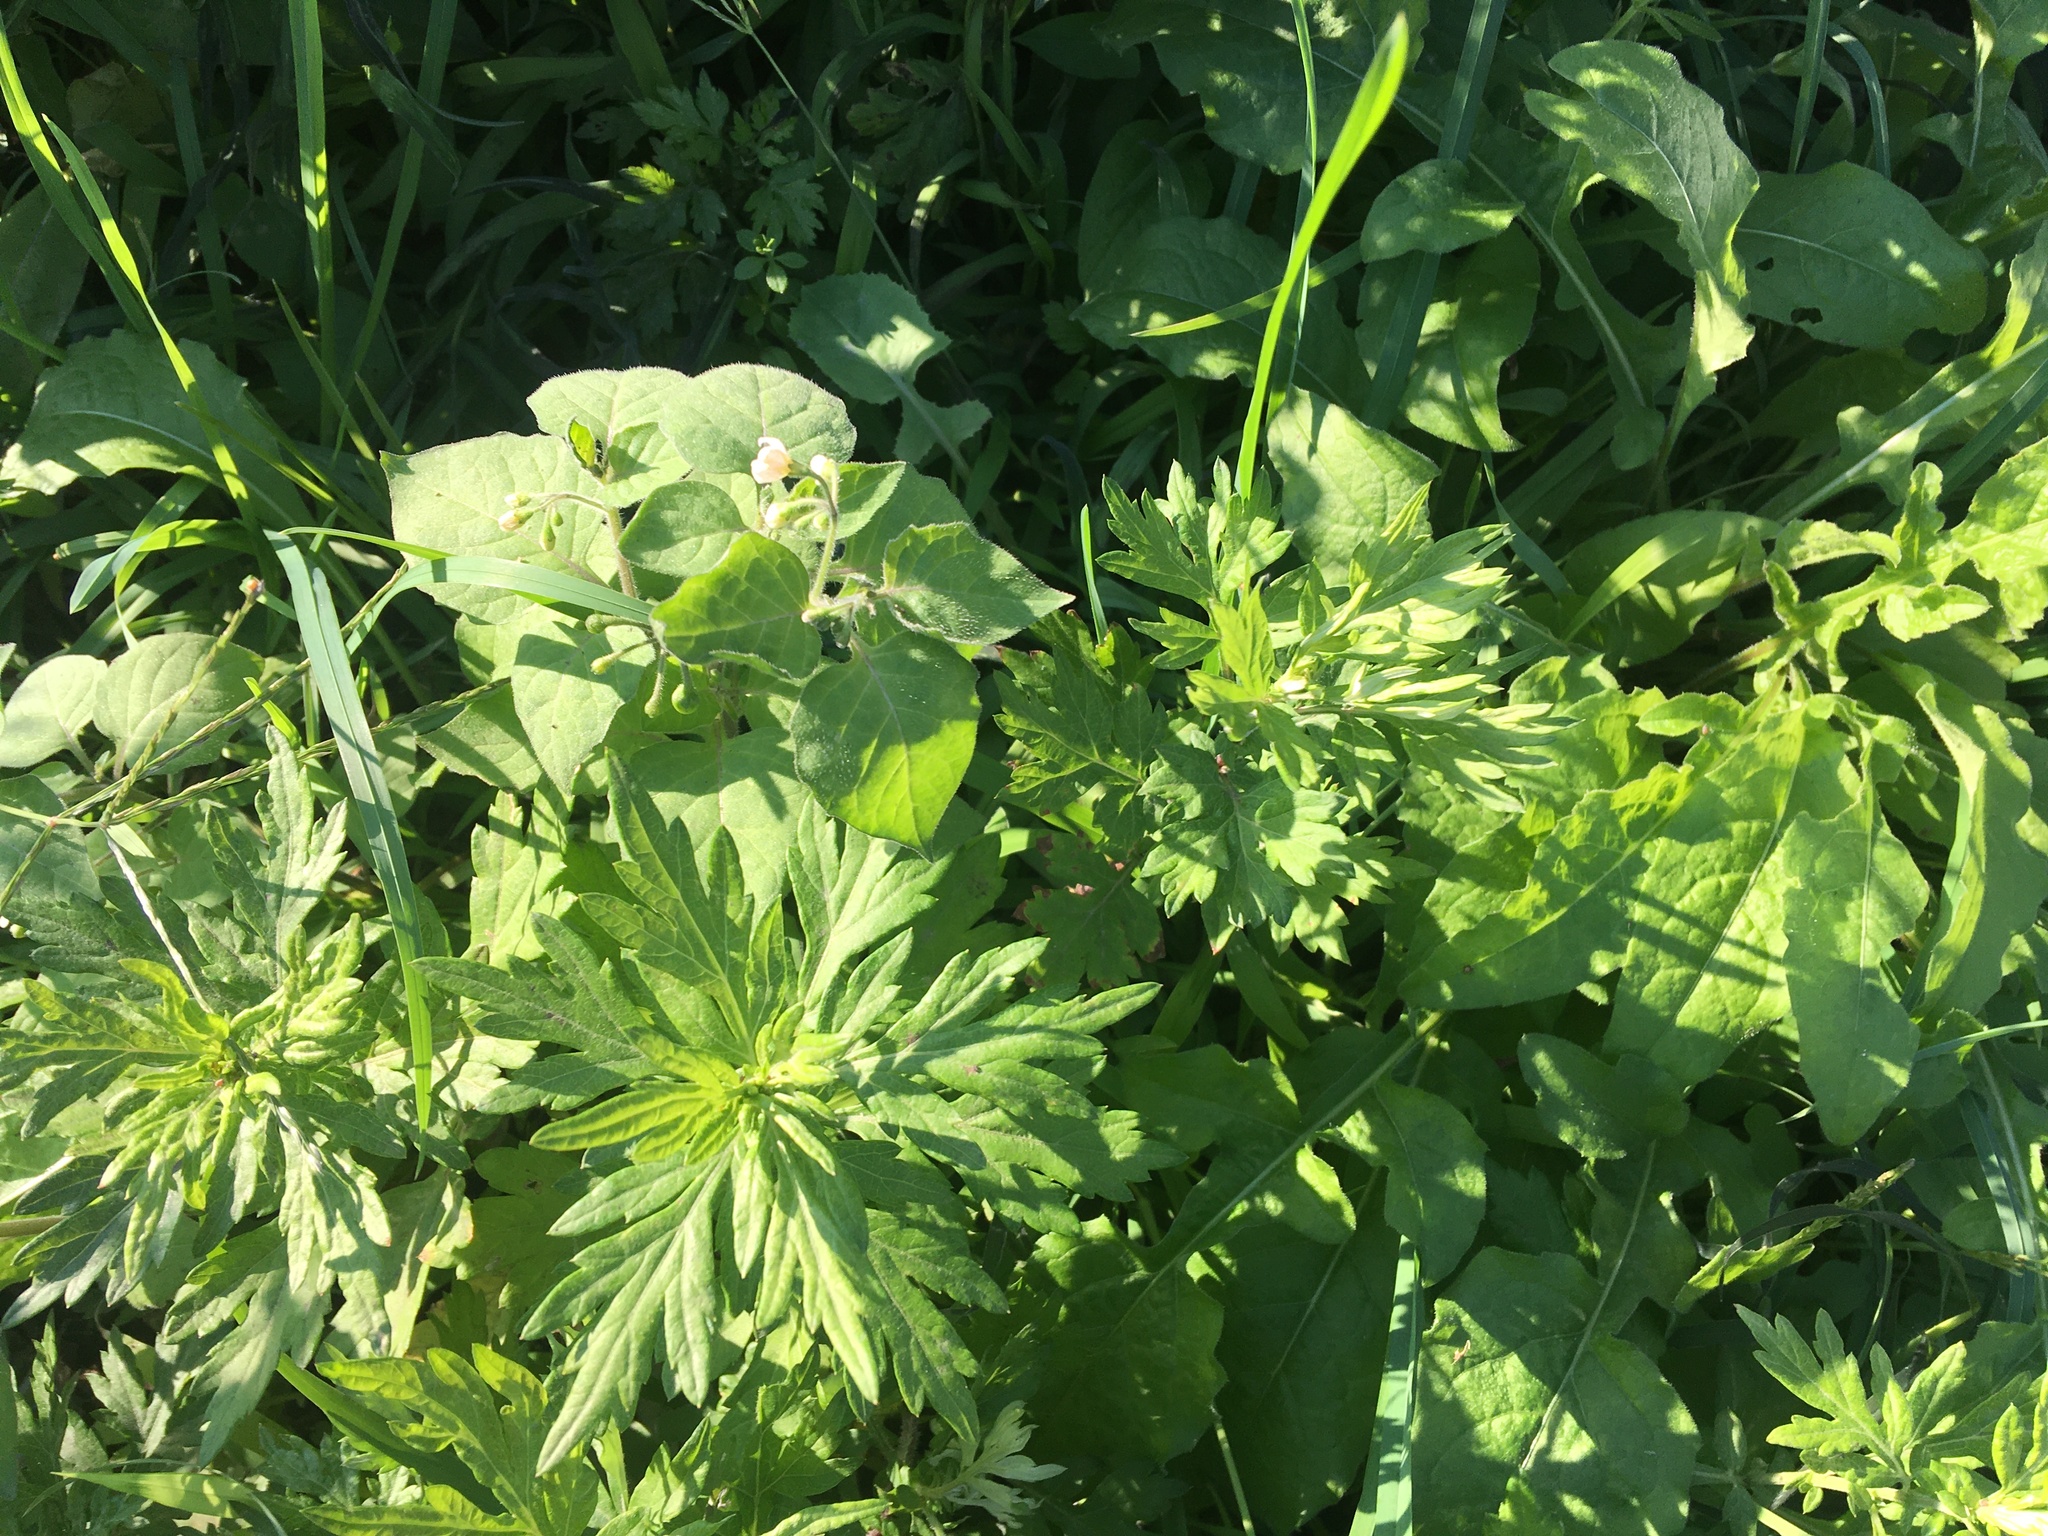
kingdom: Plantae
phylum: Tracheophyta
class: Magnoliopsida
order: Asterales
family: Asteraceae
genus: Artemisia
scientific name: Artemisia vulgaris
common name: Mugwort
